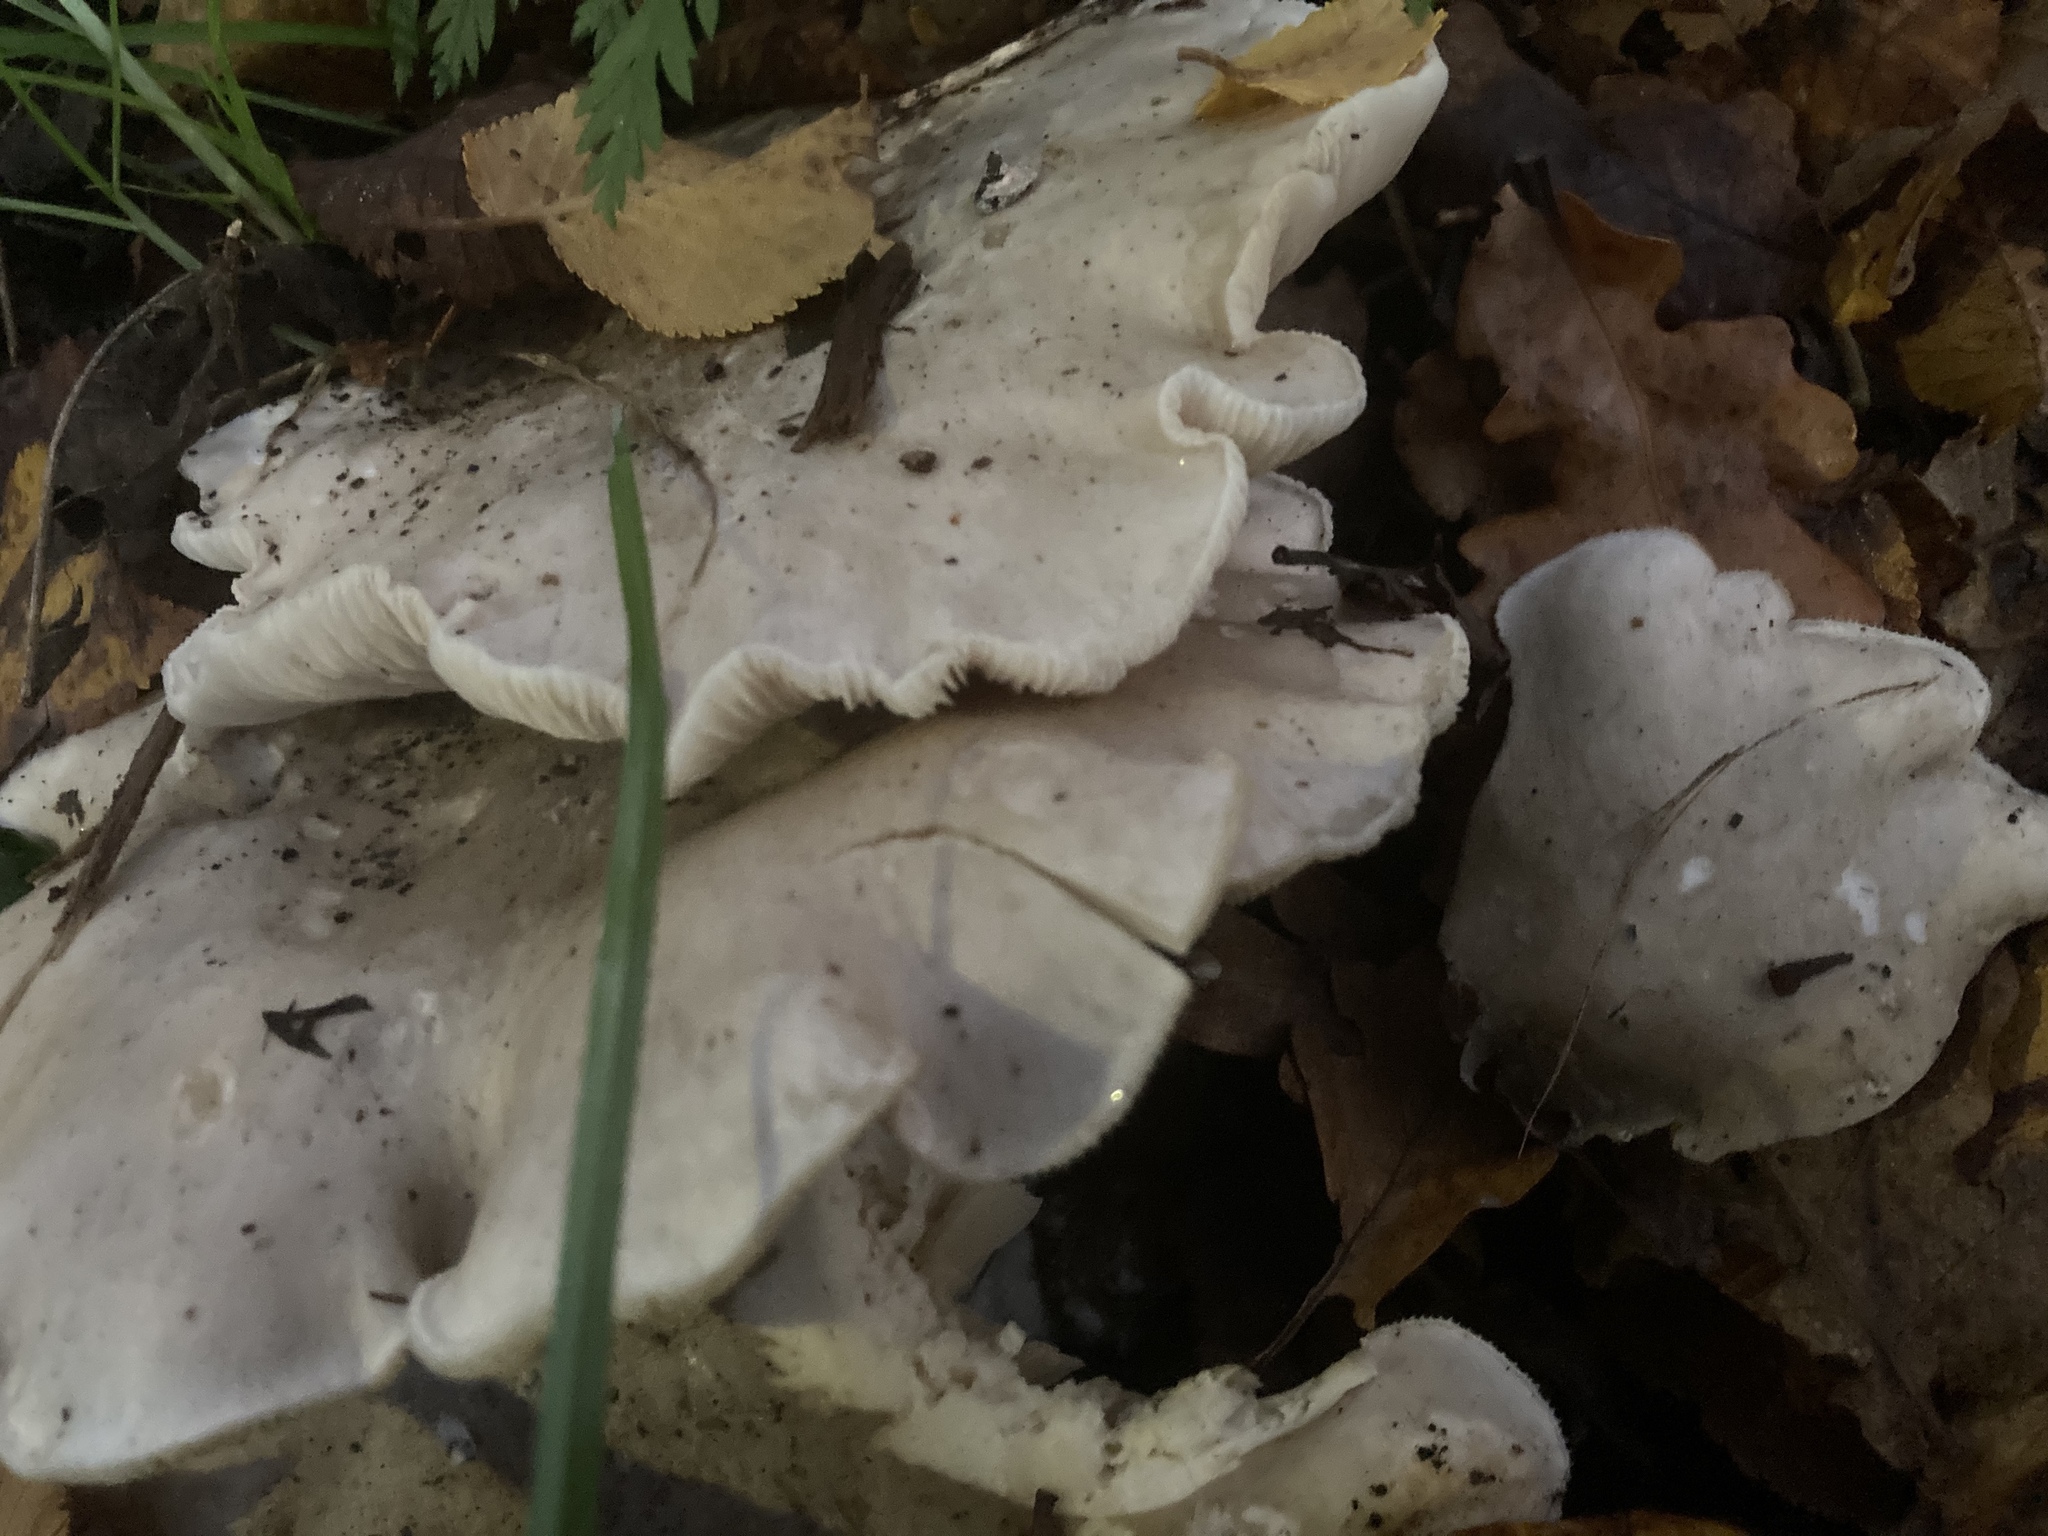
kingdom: Fungi
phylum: Basidiomycota
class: Agaricomycetes
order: Agaricales
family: Tricholomataceae
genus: Clitocybe
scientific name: Clitocybe nebularis
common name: Clouded agaric
